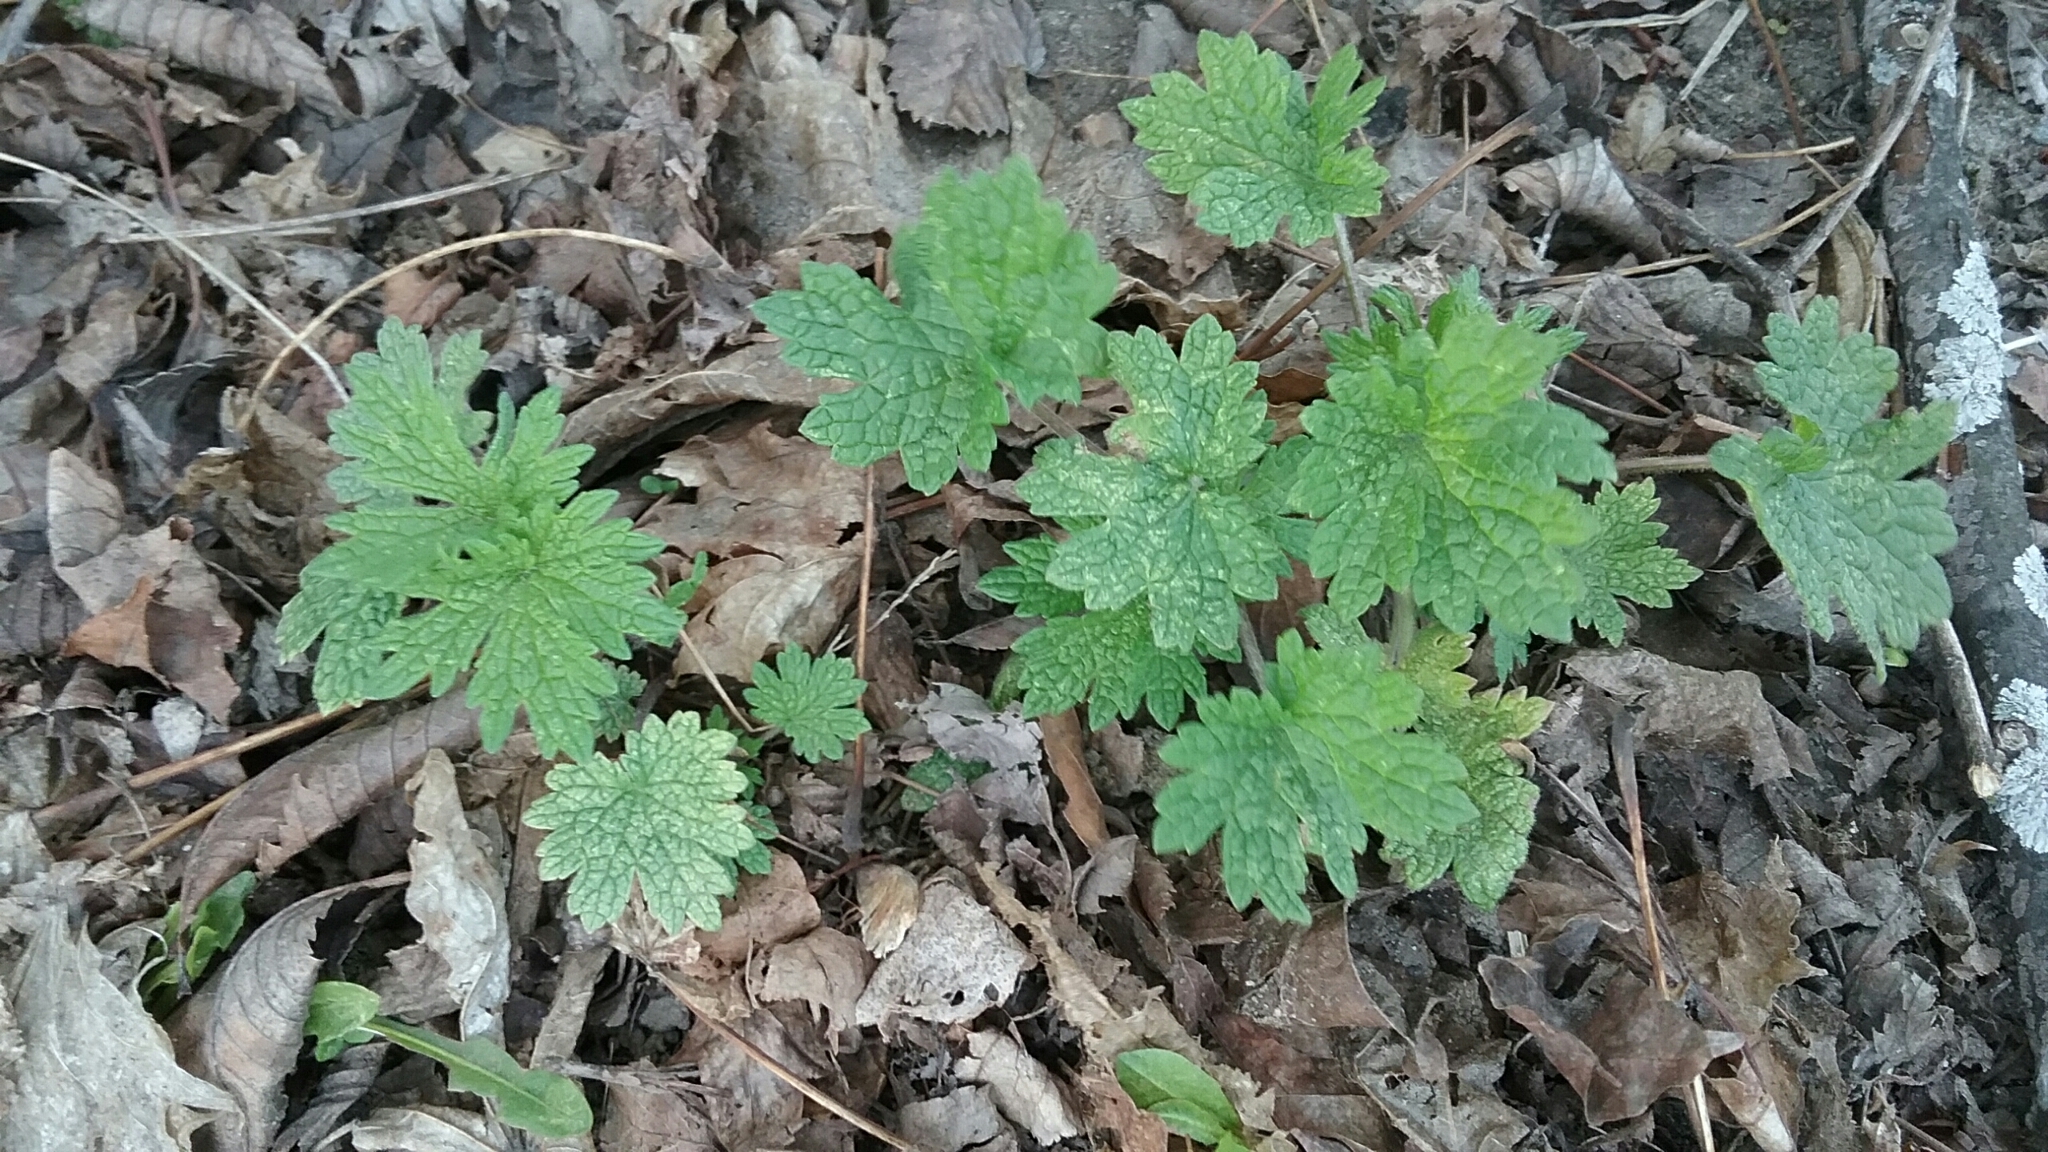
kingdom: Plantae
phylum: Tracheophyta
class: Magnoliopsida
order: Lamiales
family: Lamiaceae
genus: Leonurus
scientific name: Leonurus cardiaca
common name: Motherwort
